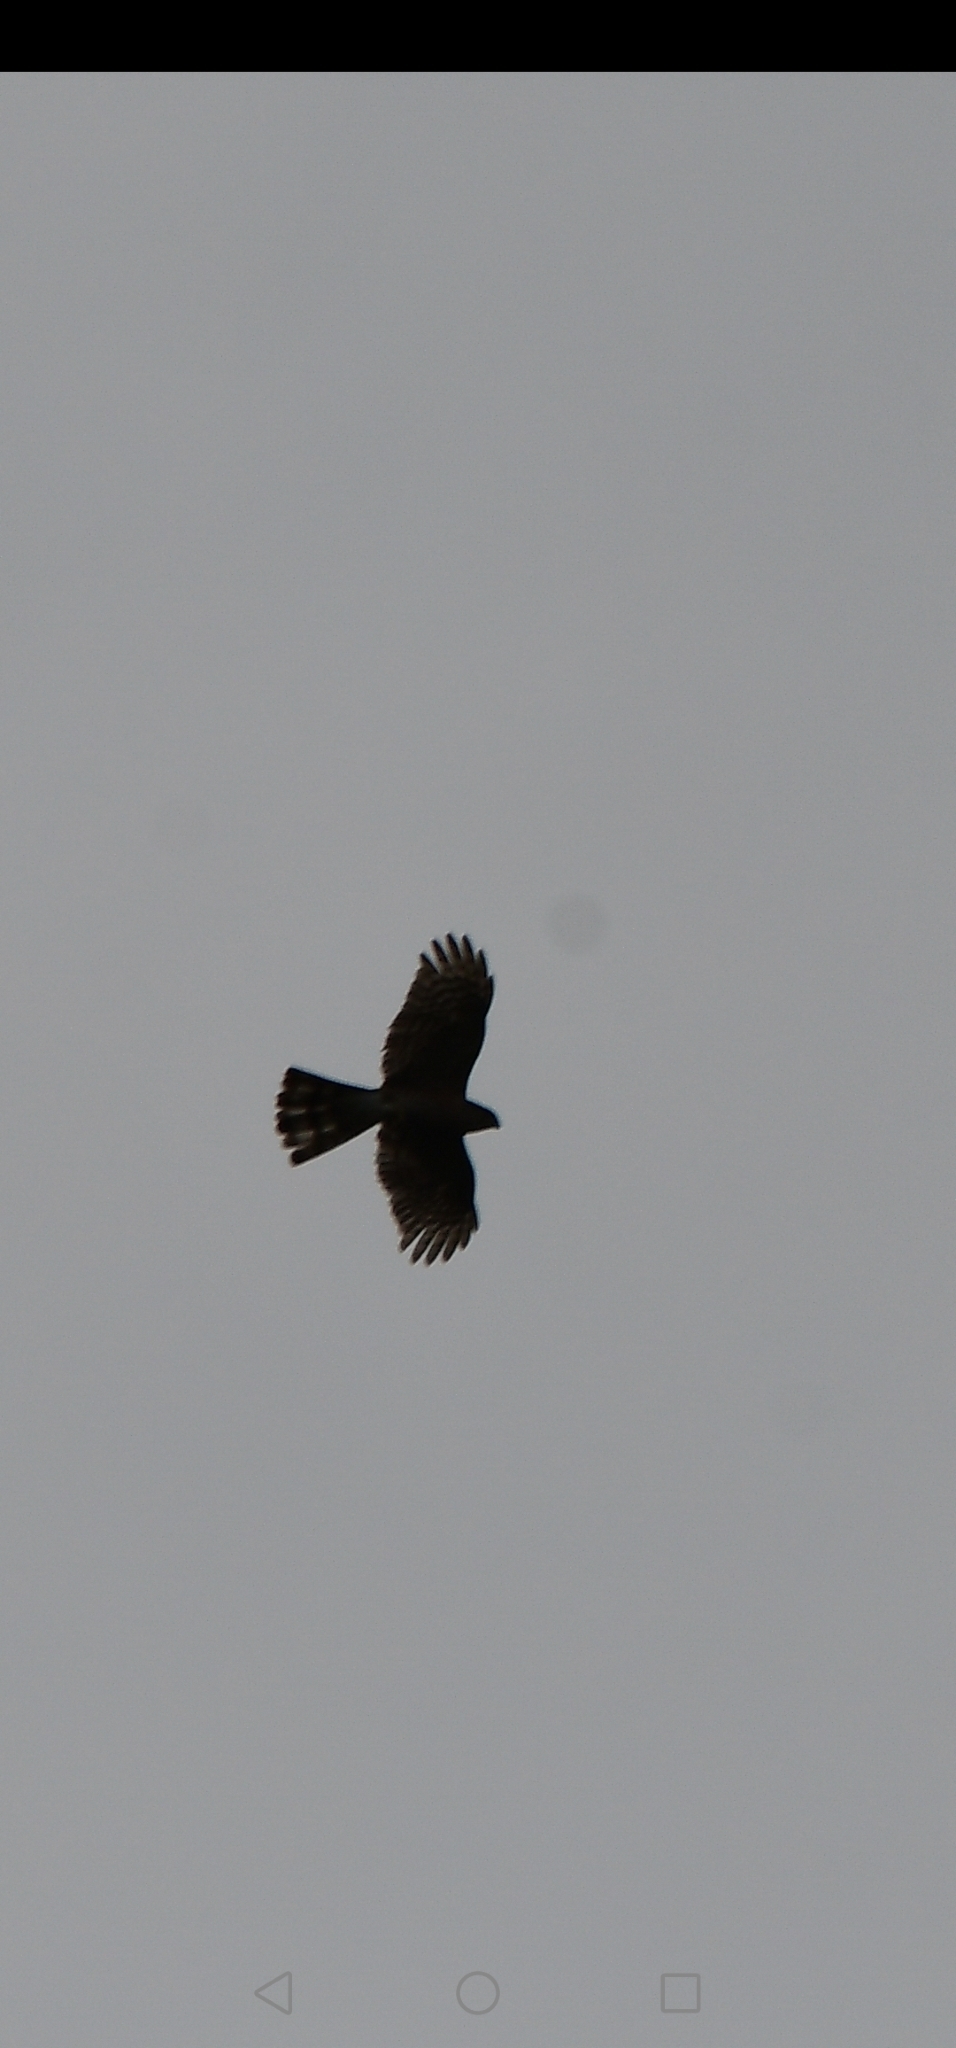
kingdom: Animalia
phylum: Chordata
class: Aves
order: Accipitriformes
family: Accipitridae
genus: Accipiter
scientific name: Accipiter striatus
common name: Sharp-shinned hawk
